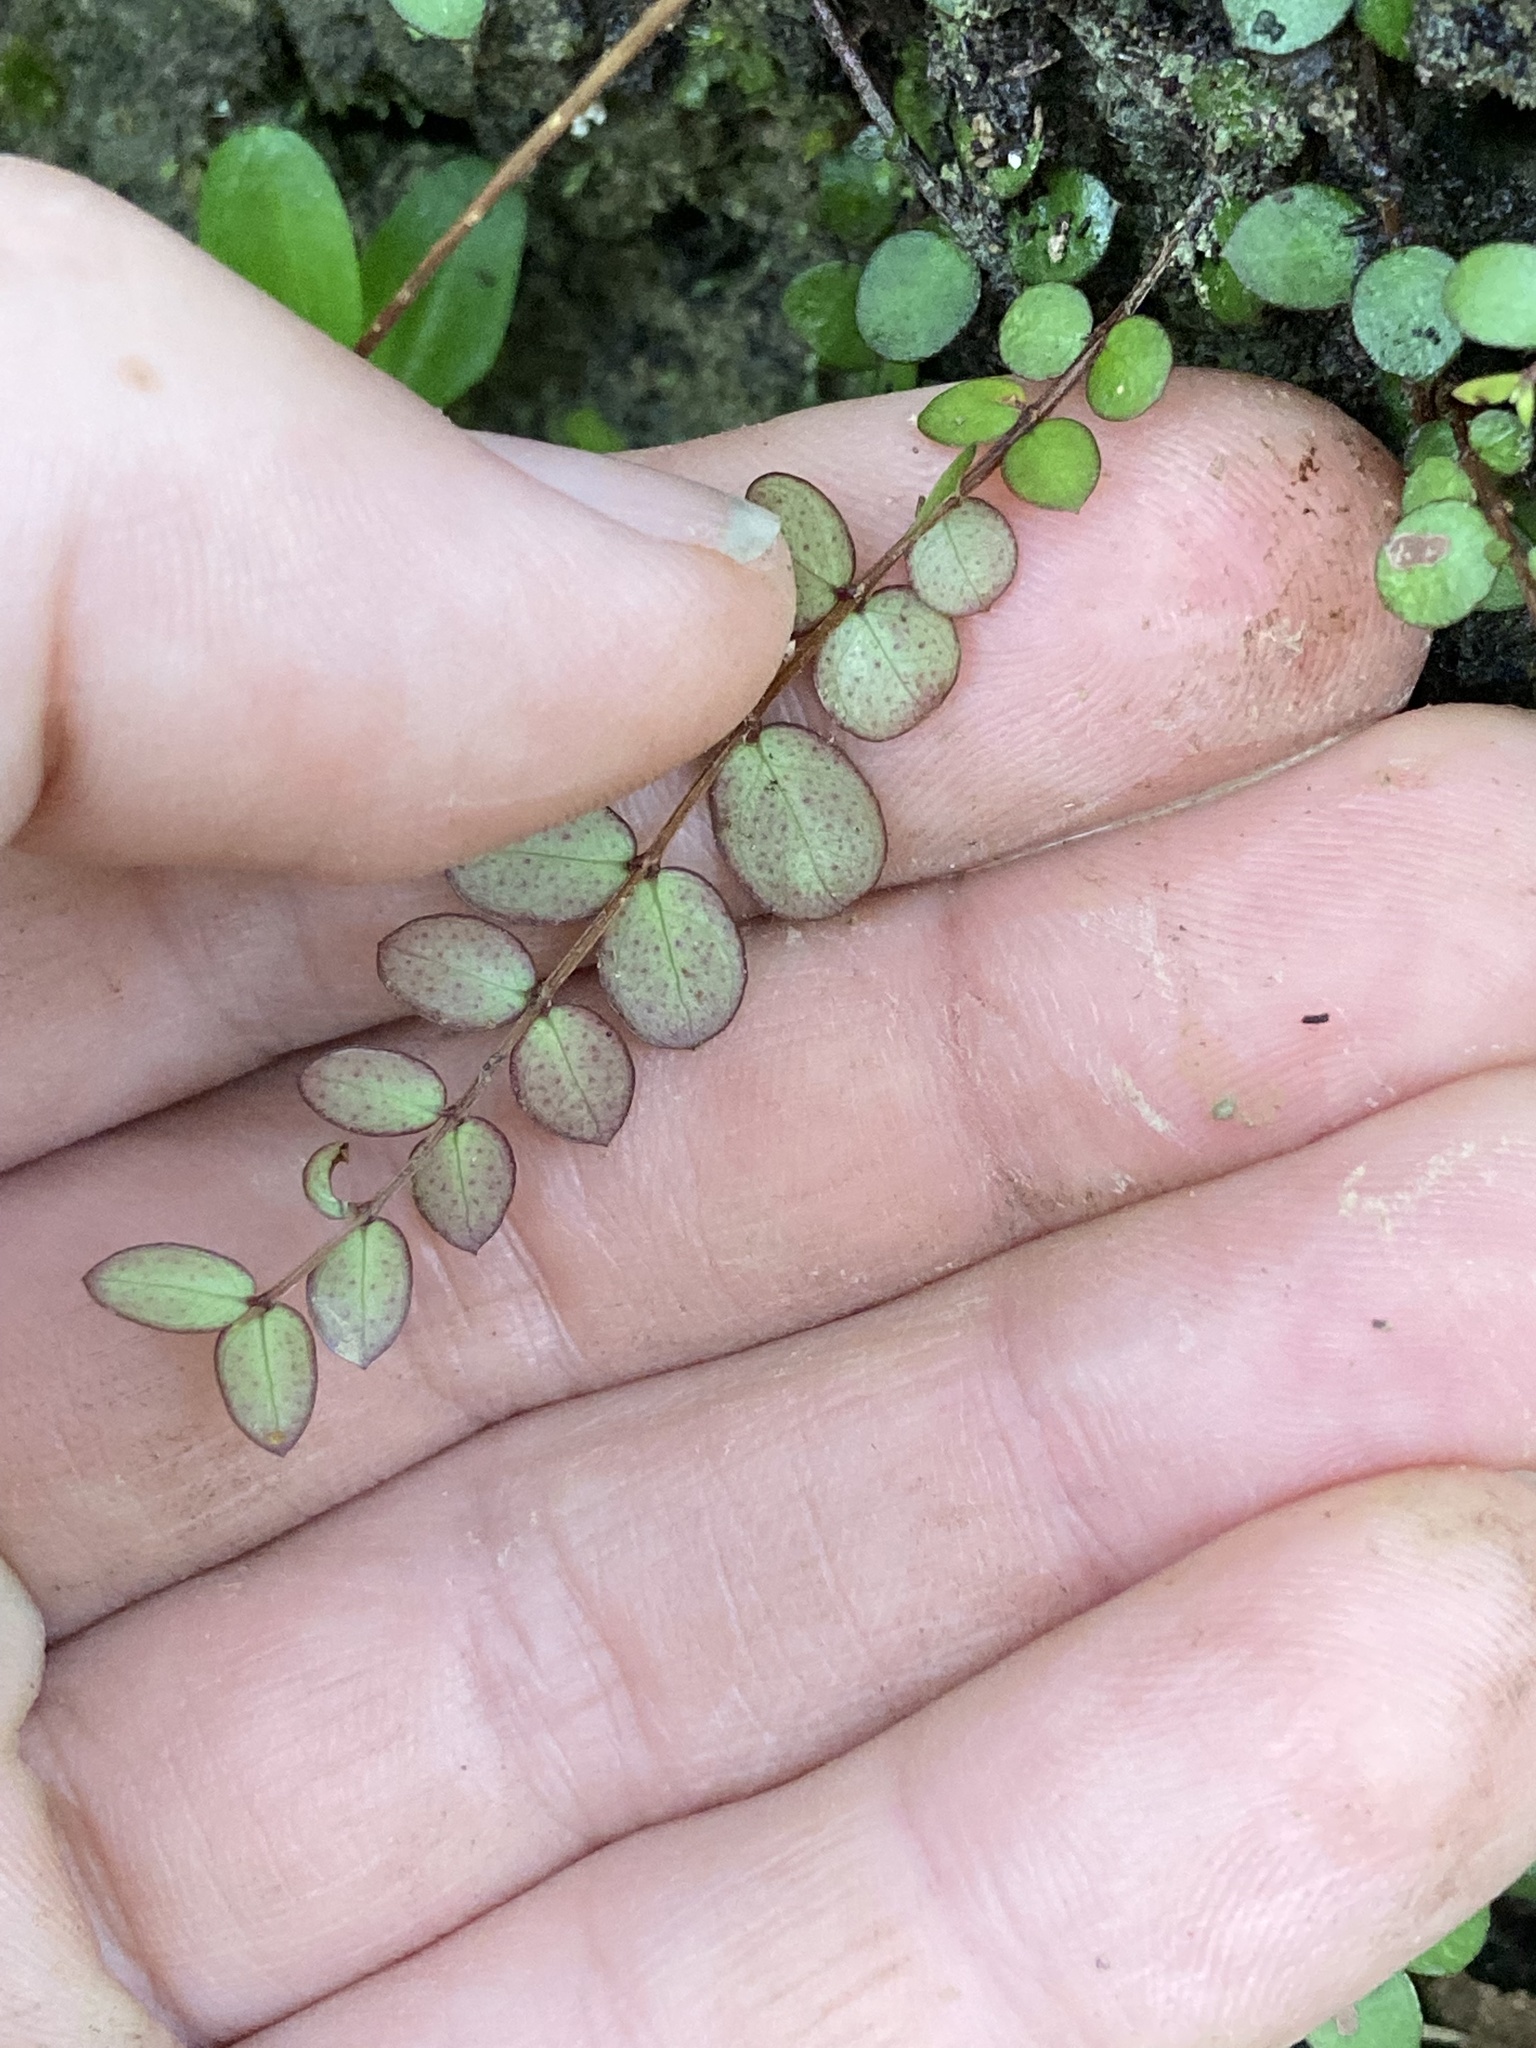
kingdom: Plantae
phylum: Tracheophyta
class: Magnoliopsida
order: Myrtales
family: Myrtaceae
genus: Metrosideros
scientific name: Metrosideros diffusa
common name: Small ratavine
